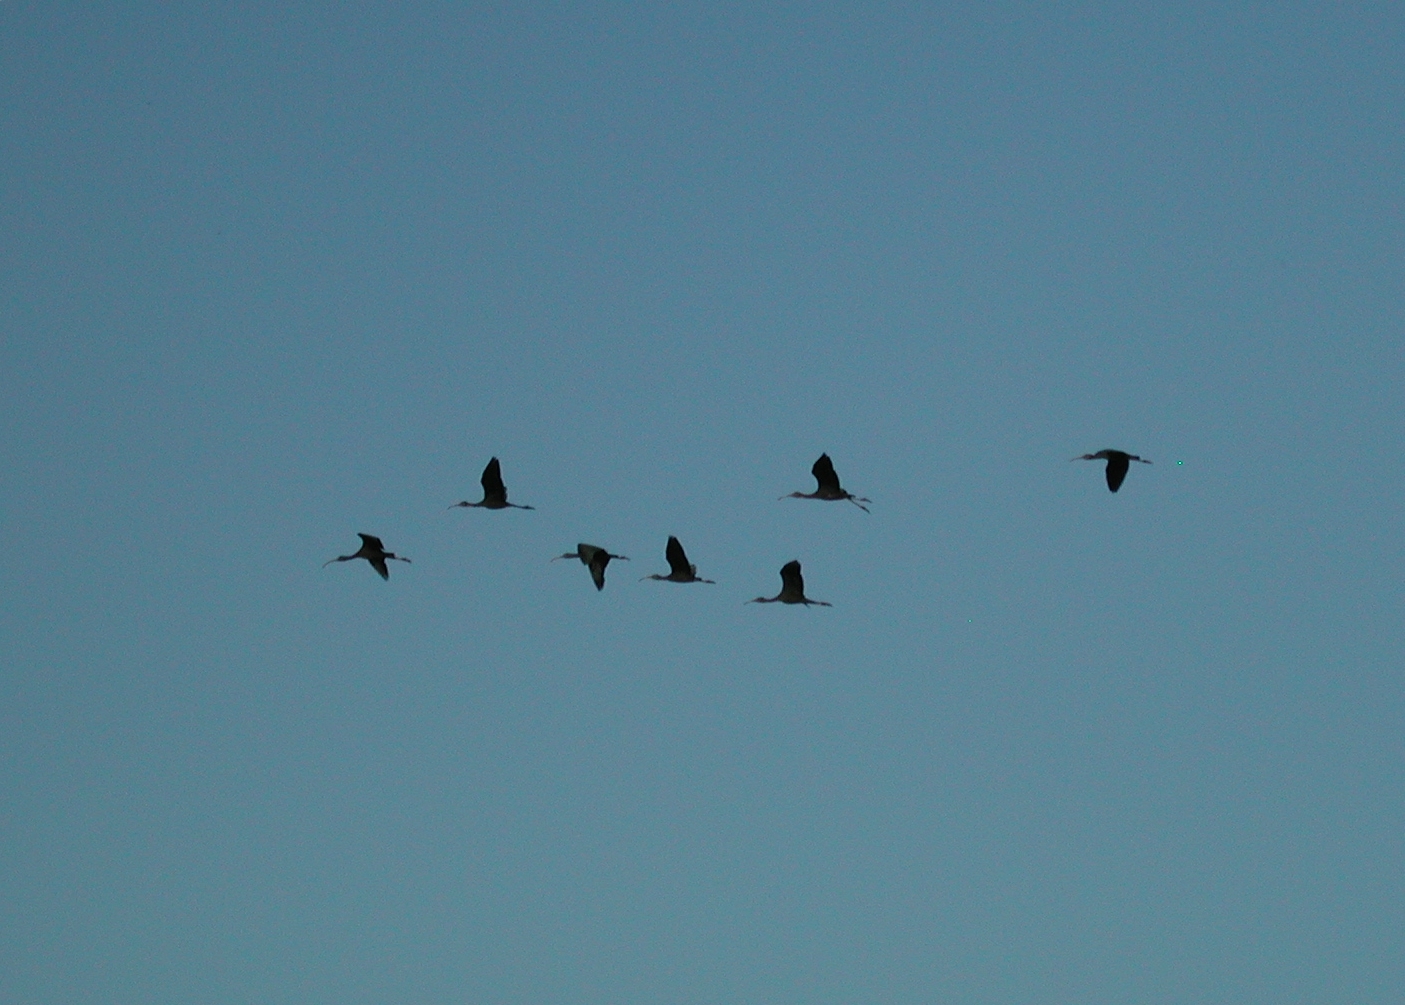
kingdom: Animalia
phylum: Chordata
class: Aves
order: Pelecaniformes
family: Threskiornithidae
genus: Plegadis
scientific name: Plegadis falcinellus
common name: Glossy ibis
